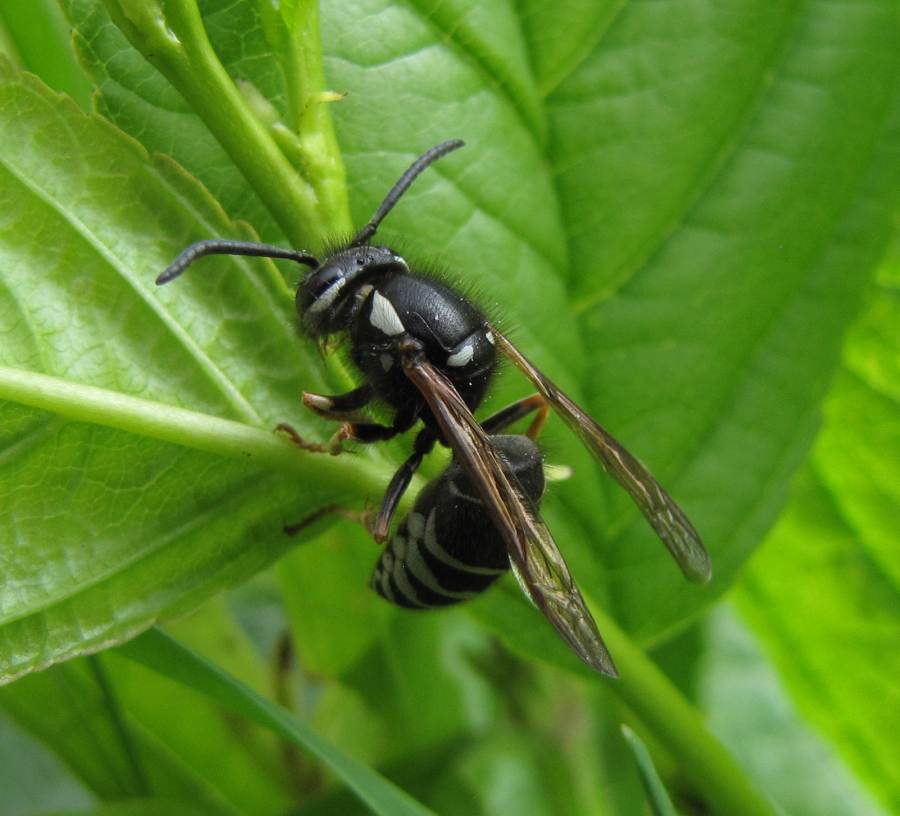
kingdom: Animalia
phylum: Arthropoda
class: Insecta
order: Hymenoptera
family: Vespidae
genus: Vespula
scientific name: Vespula consobrina
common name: Blackjacket
